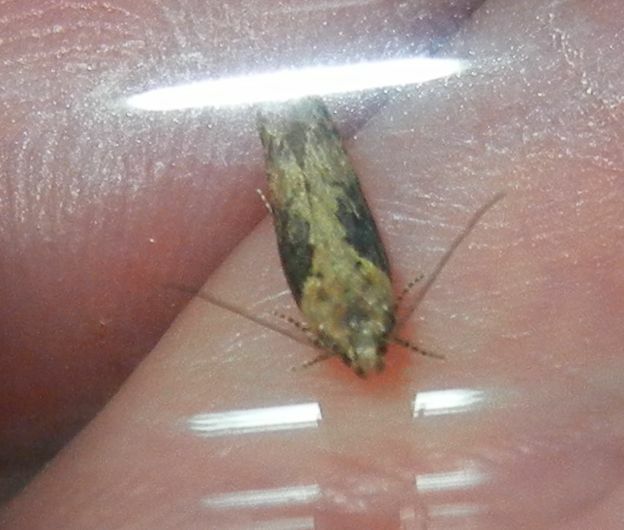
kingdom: Animalia
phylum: Arthropoda
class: Insecta
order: Lepidoptera
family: Gelechiidae
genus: Scrobipalpa
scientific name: Scrobipalpa costella
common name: Winter groundling
